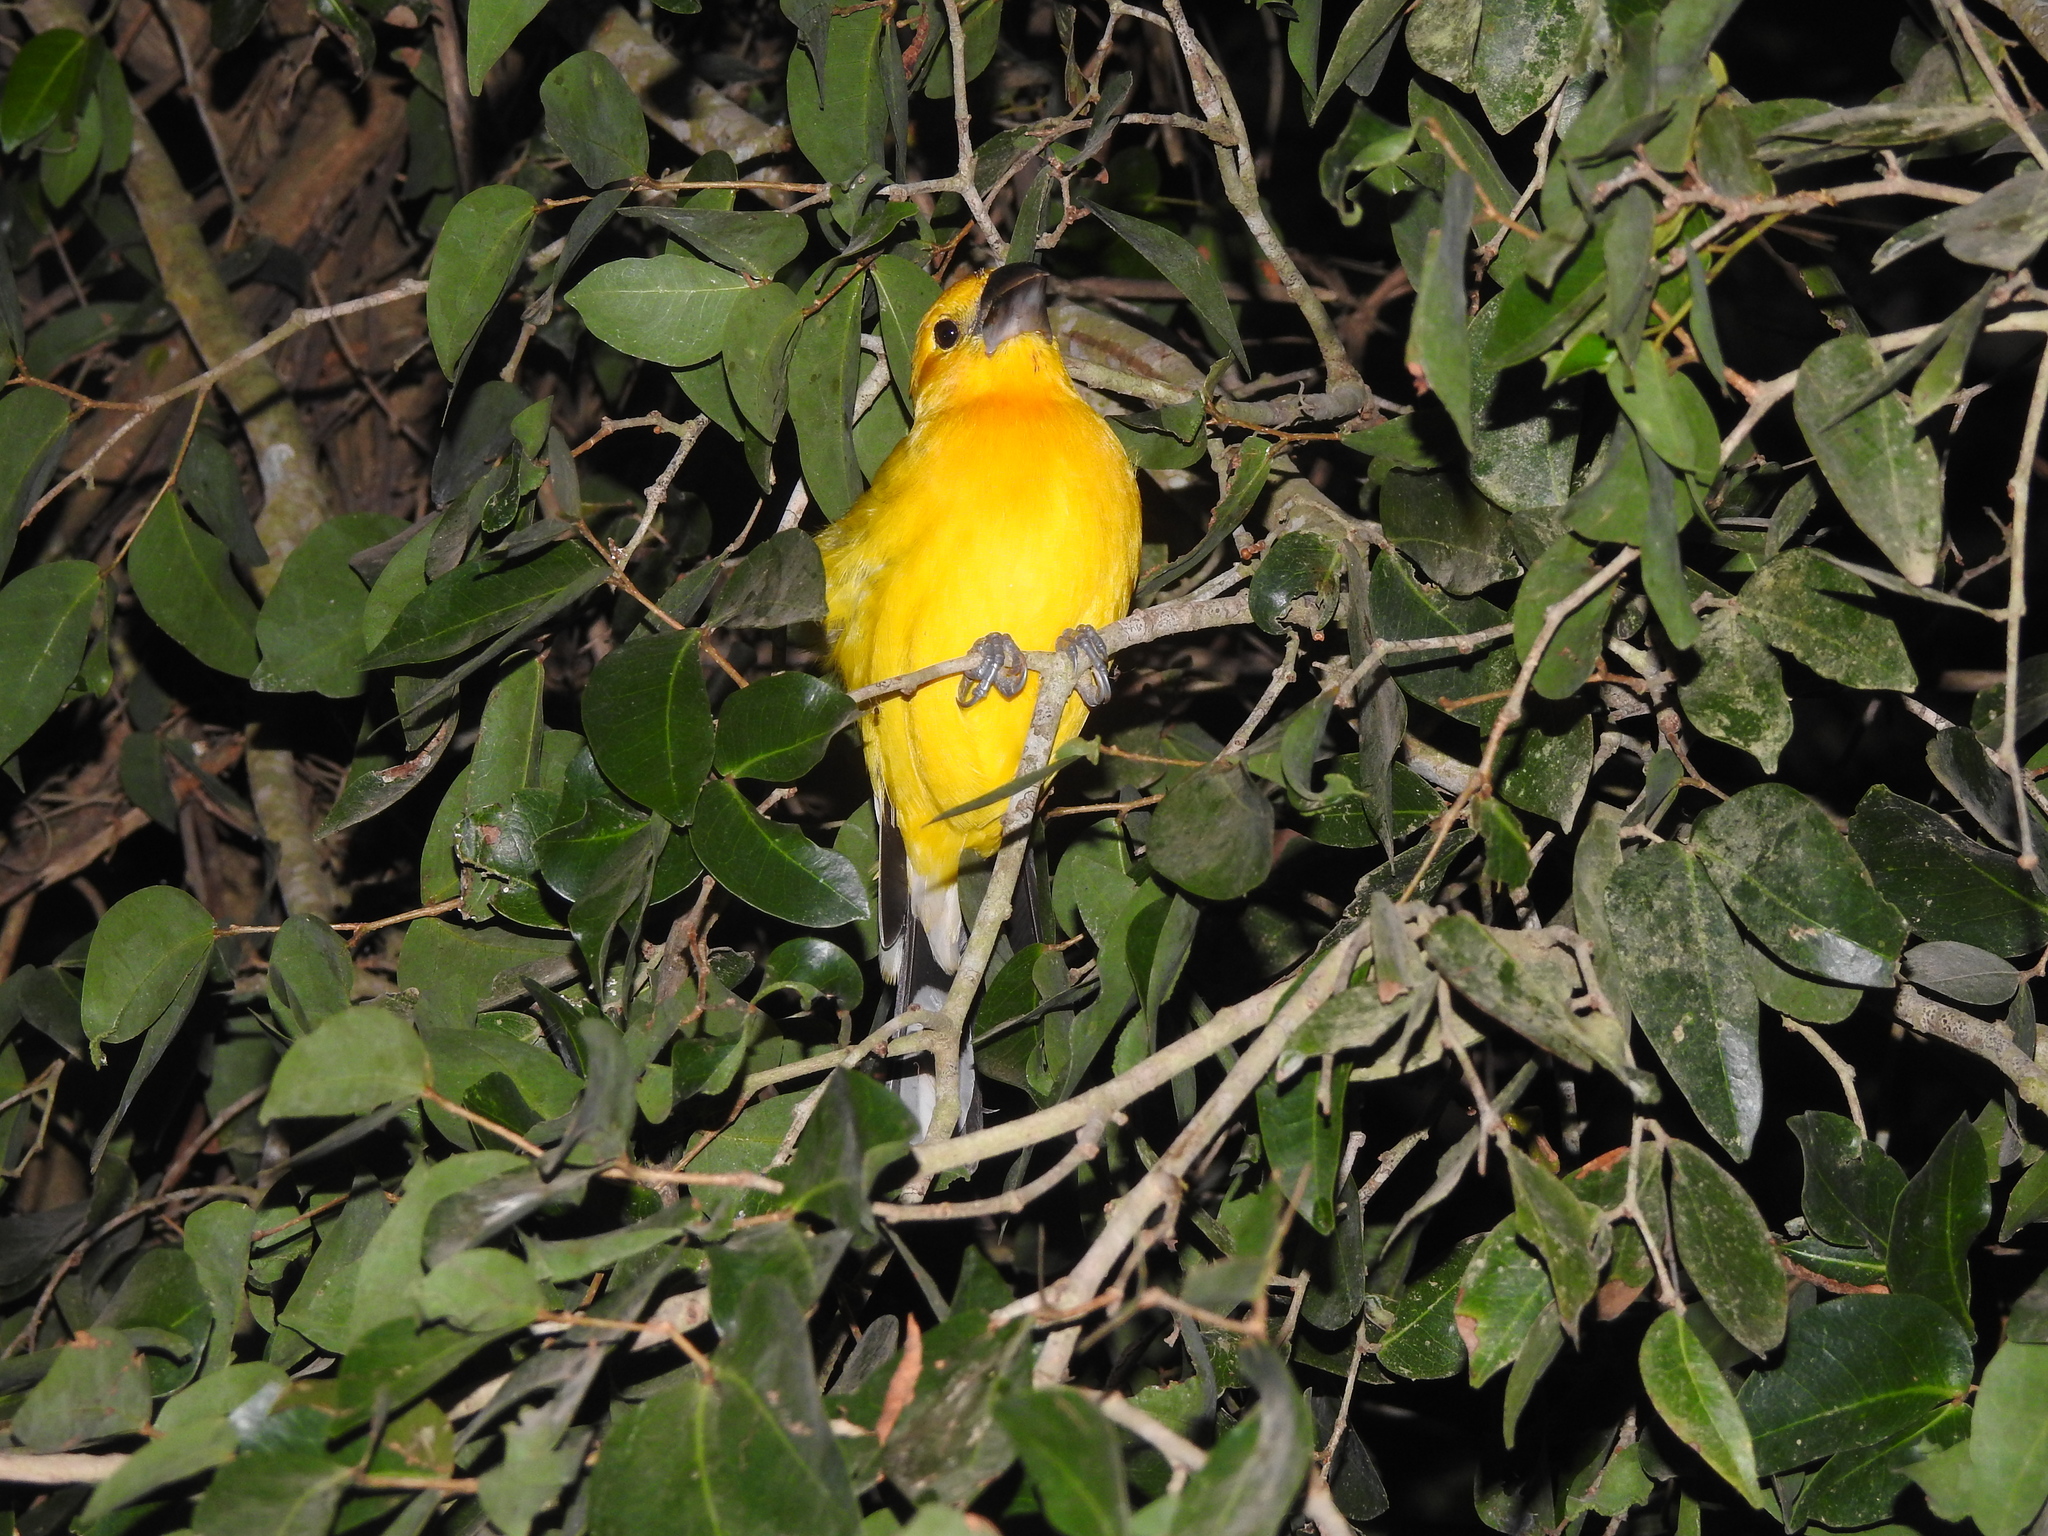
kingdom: Animalia
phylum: Chordata
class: Aves
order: Passeriformes
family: Cardinalidae
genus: Pheucticus
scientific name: Pheucticus chrysopeplus
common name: Yellow grosbeak
